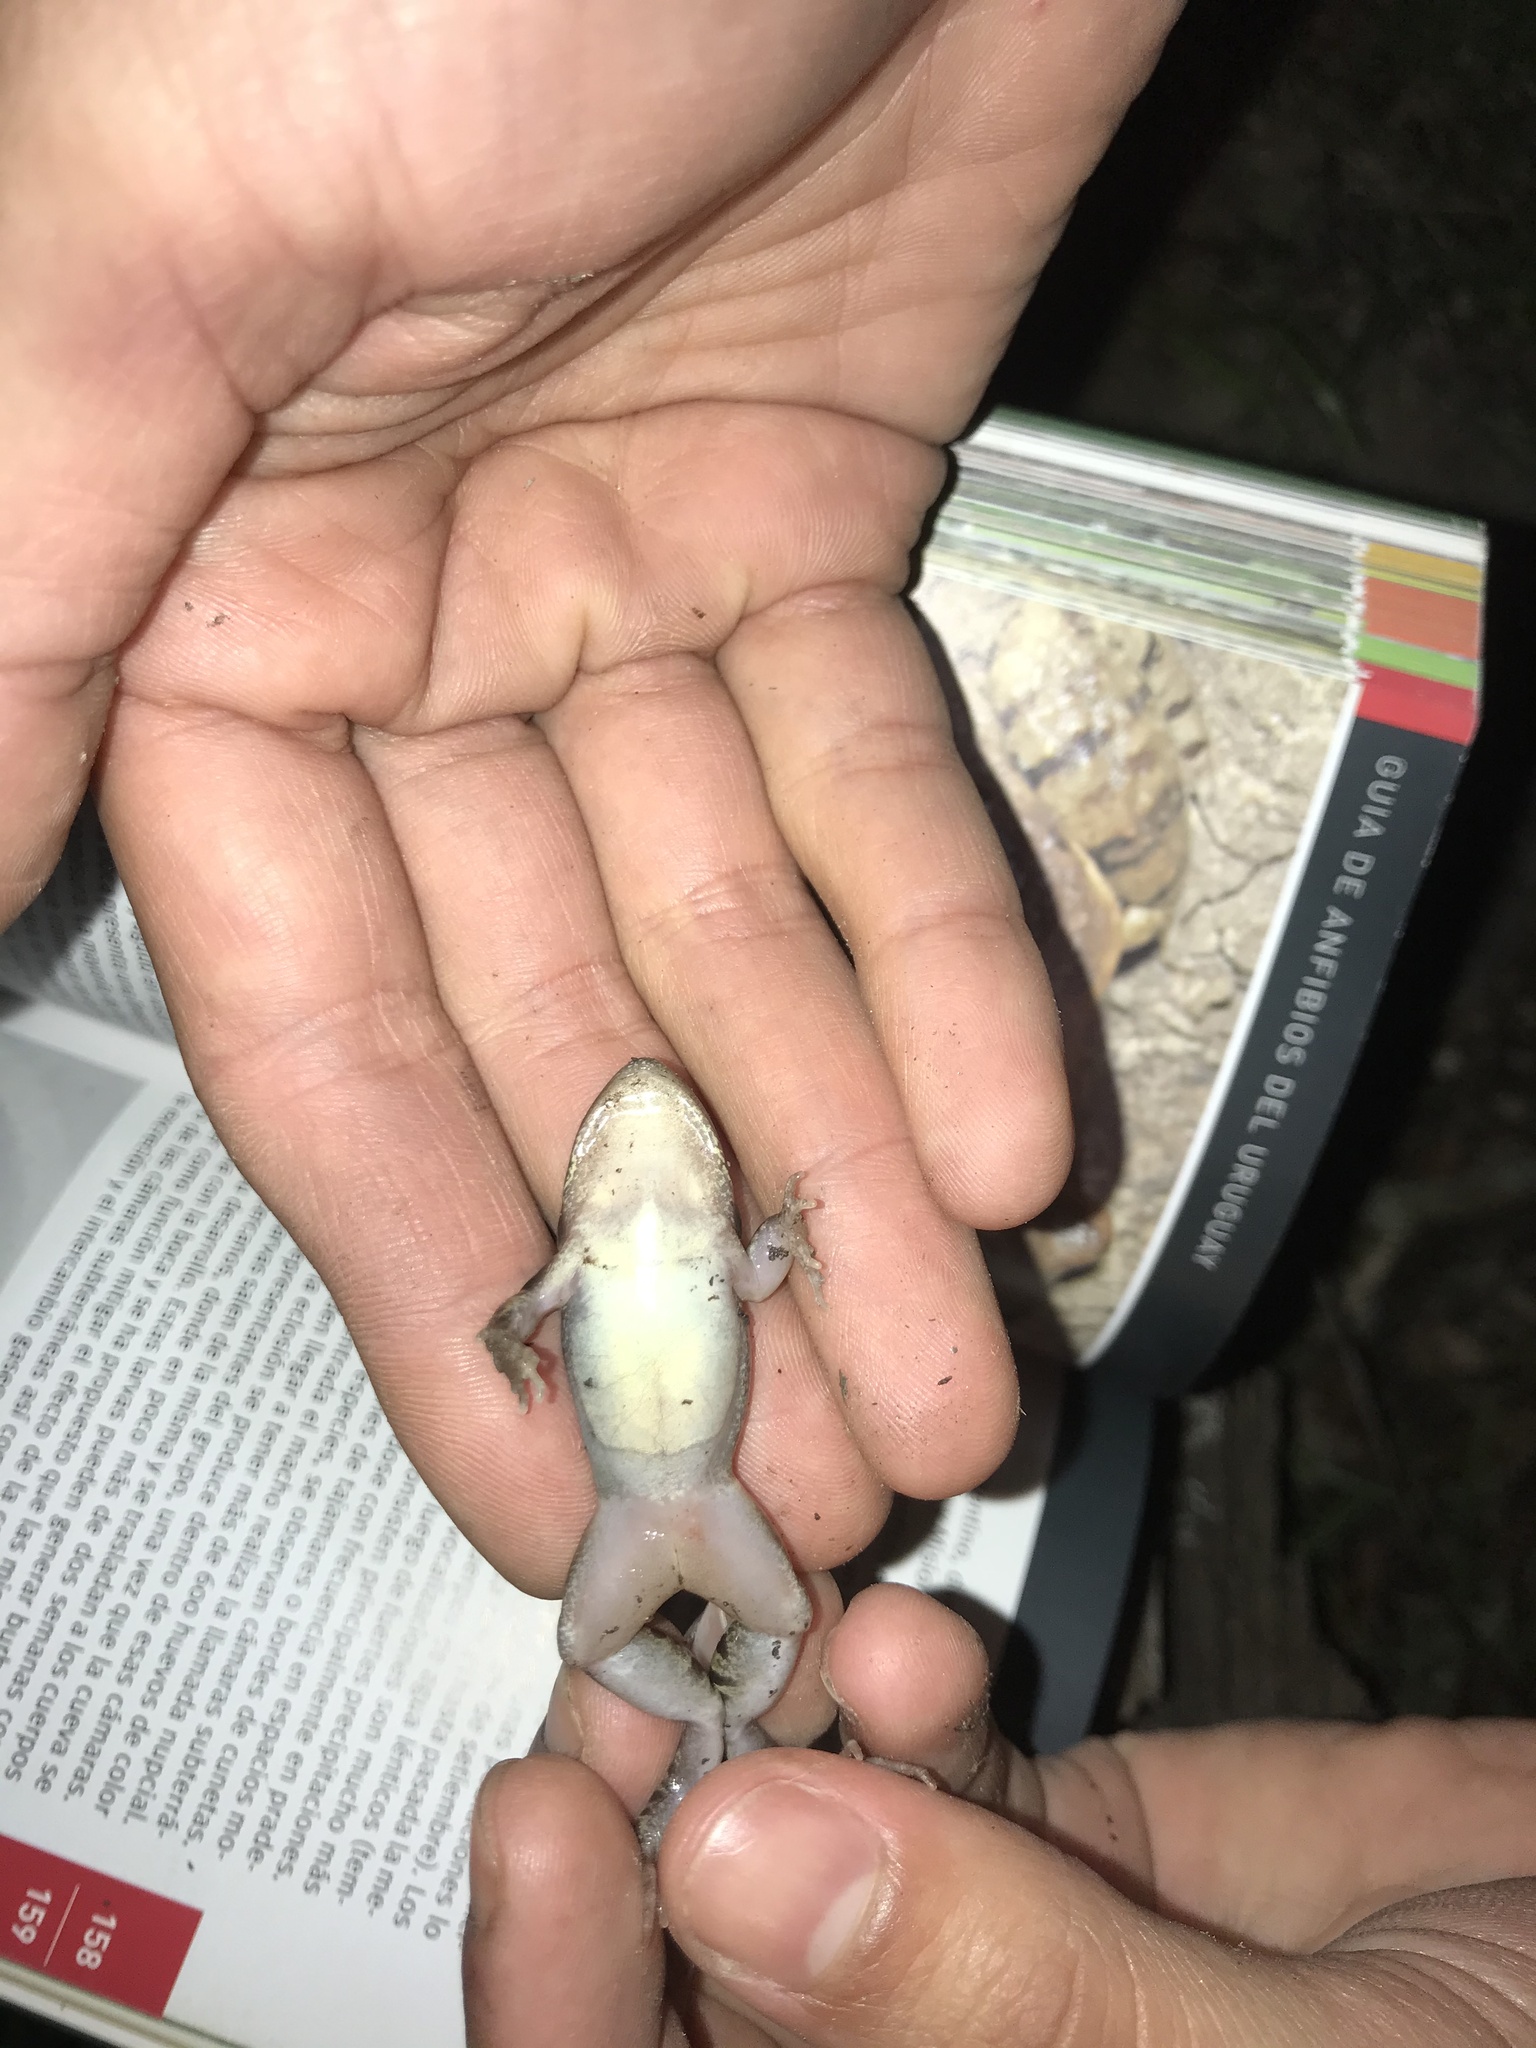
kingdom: Animalia
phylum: Chordata
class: Amphibia
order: Anura
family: Leptodactylidae
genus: Leptodactylus
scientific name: Leptodactylus mystacinus
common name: Moustached frog
